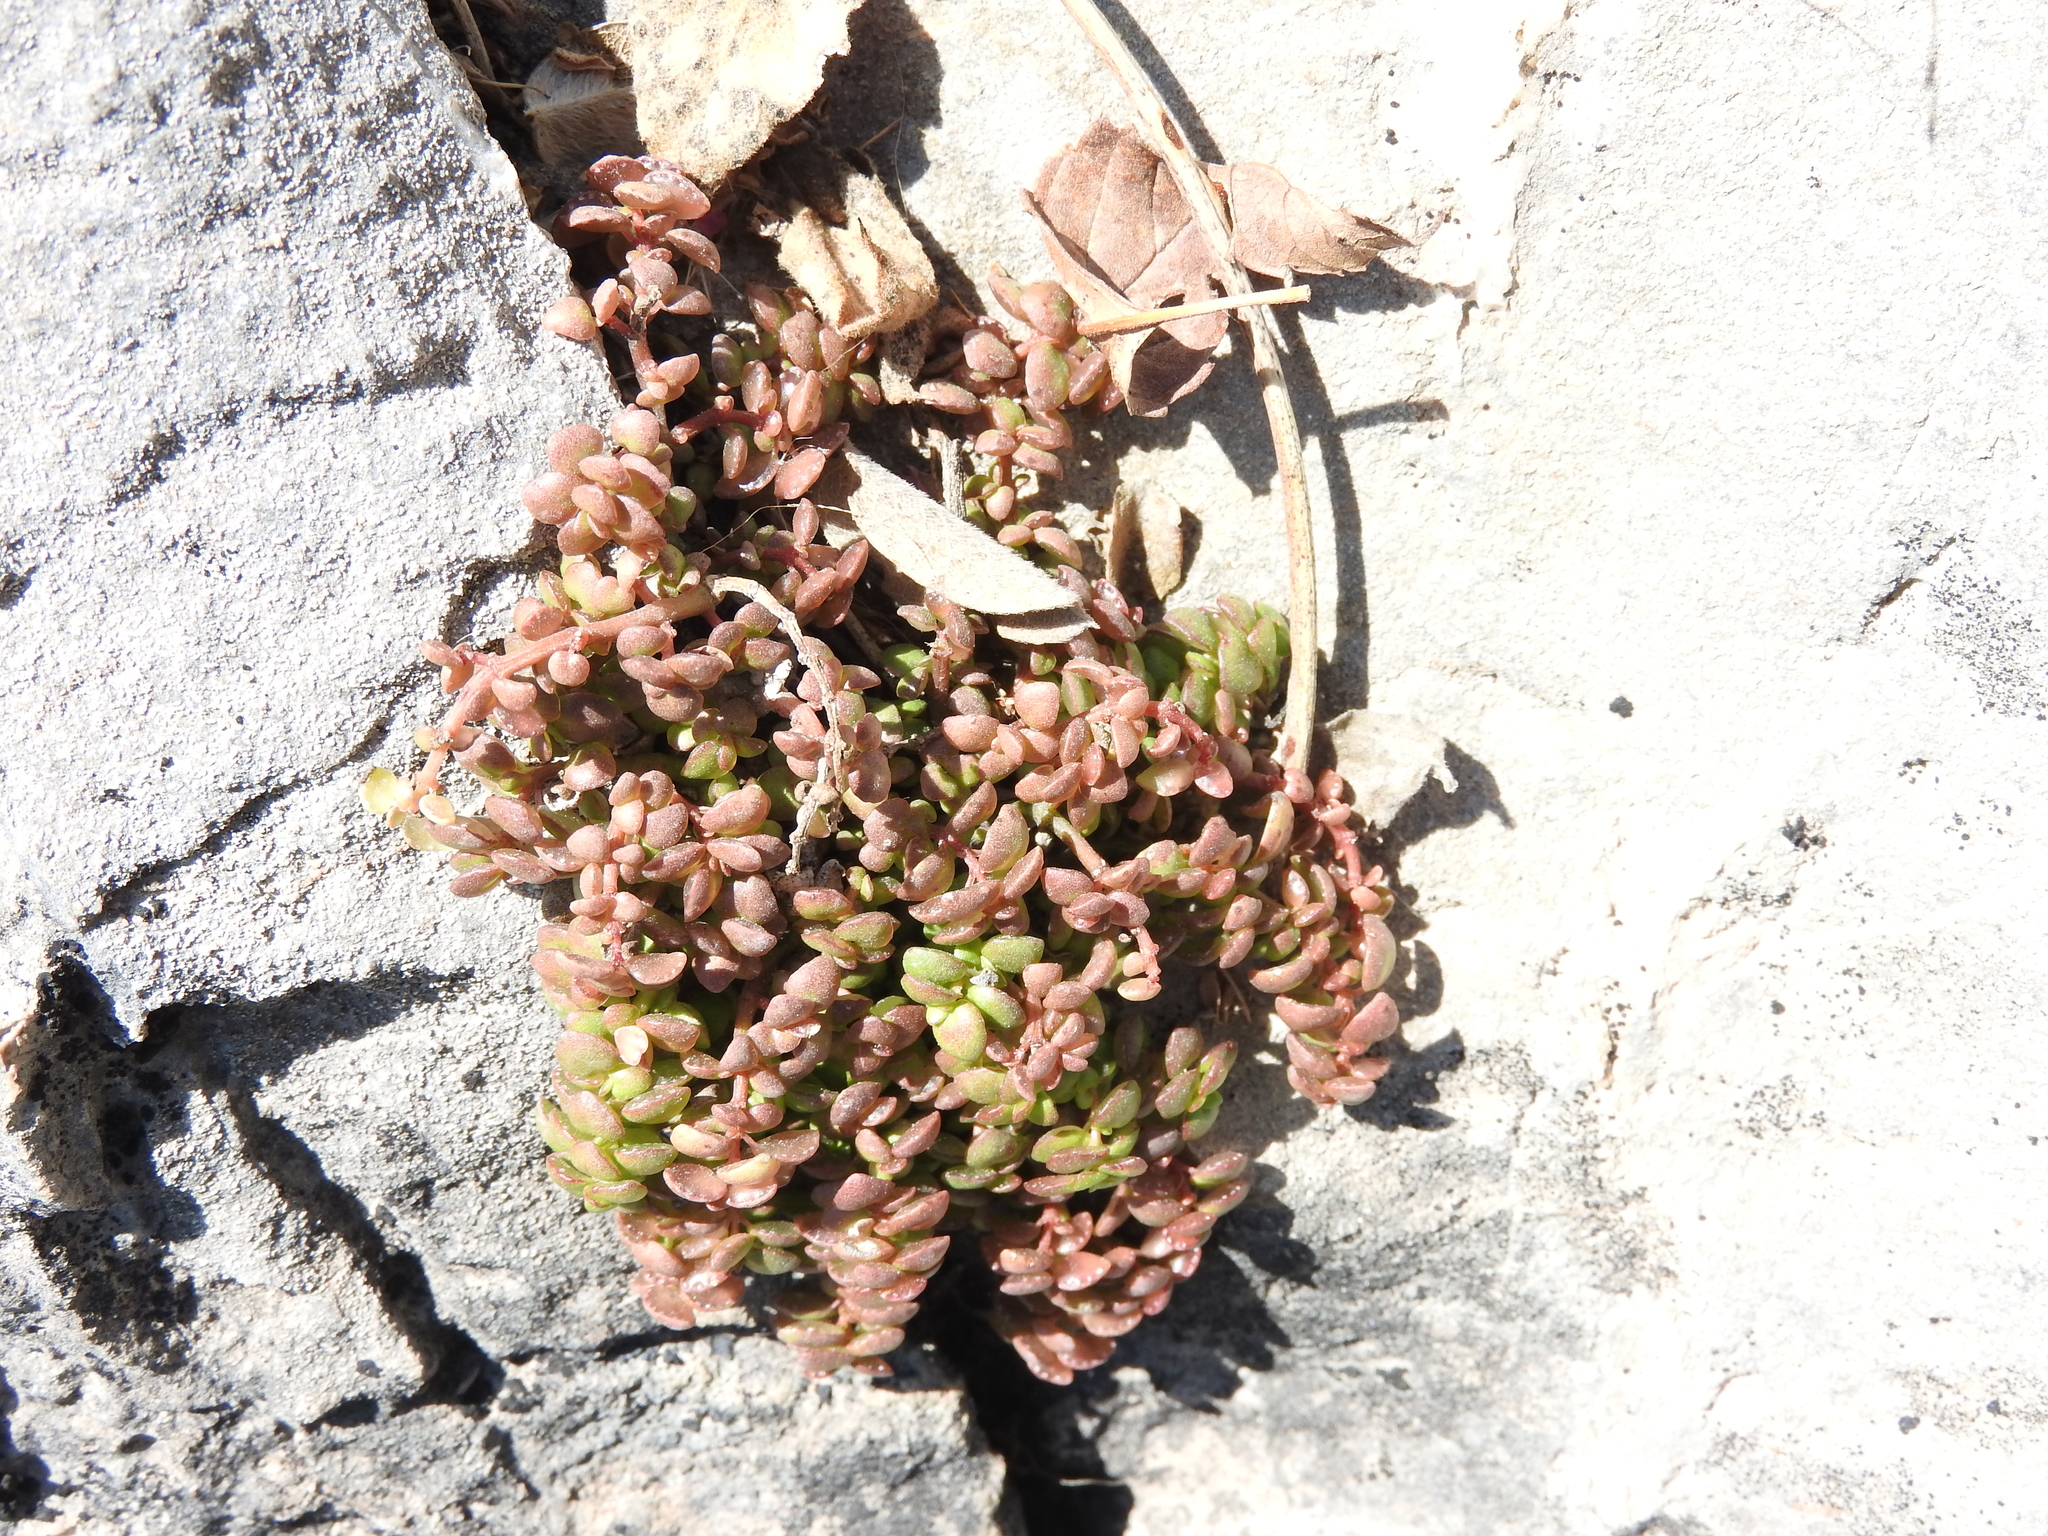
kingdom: Plantae
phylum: Tracheophyta
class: Magnoliopsida
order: Rosales
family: Urticaceae
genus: Pilea
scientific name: Pilea microphylla
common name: Artillery-plant
